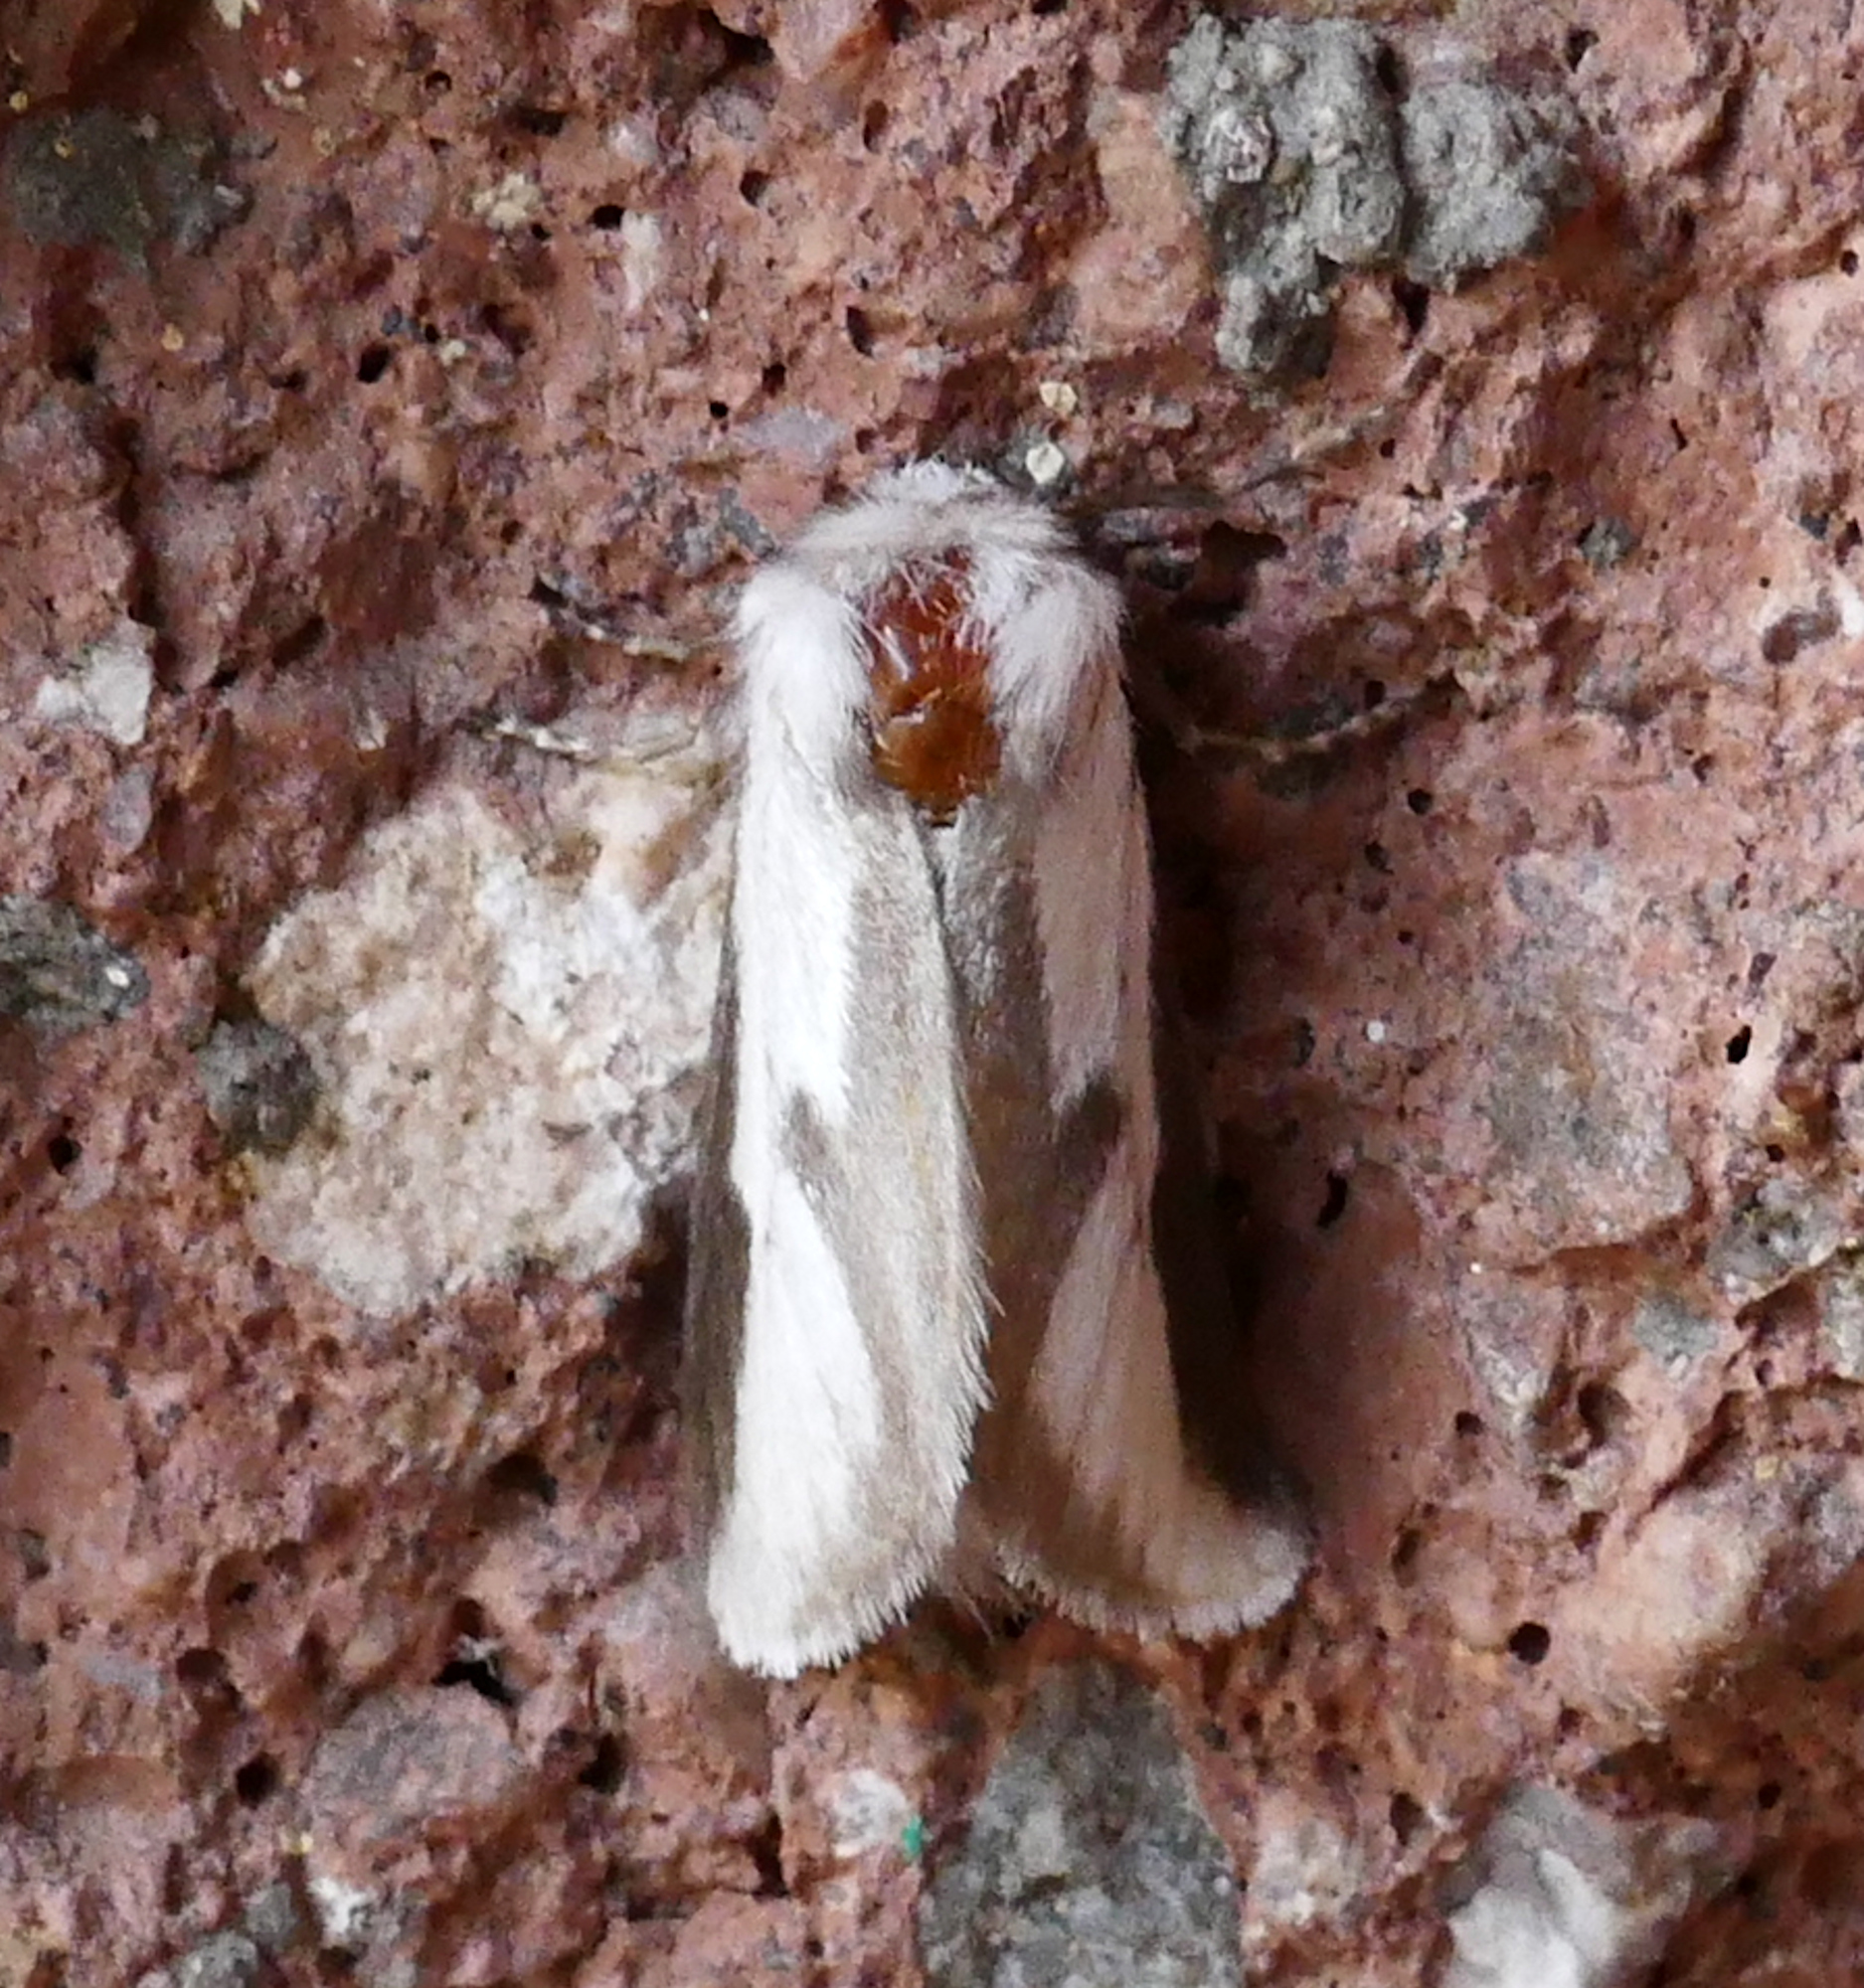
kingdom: Animalia
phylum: Arthropoda
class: Insecta
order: Lepidoptera
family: Megalopygidae
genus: Norape
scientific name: Norape tener
